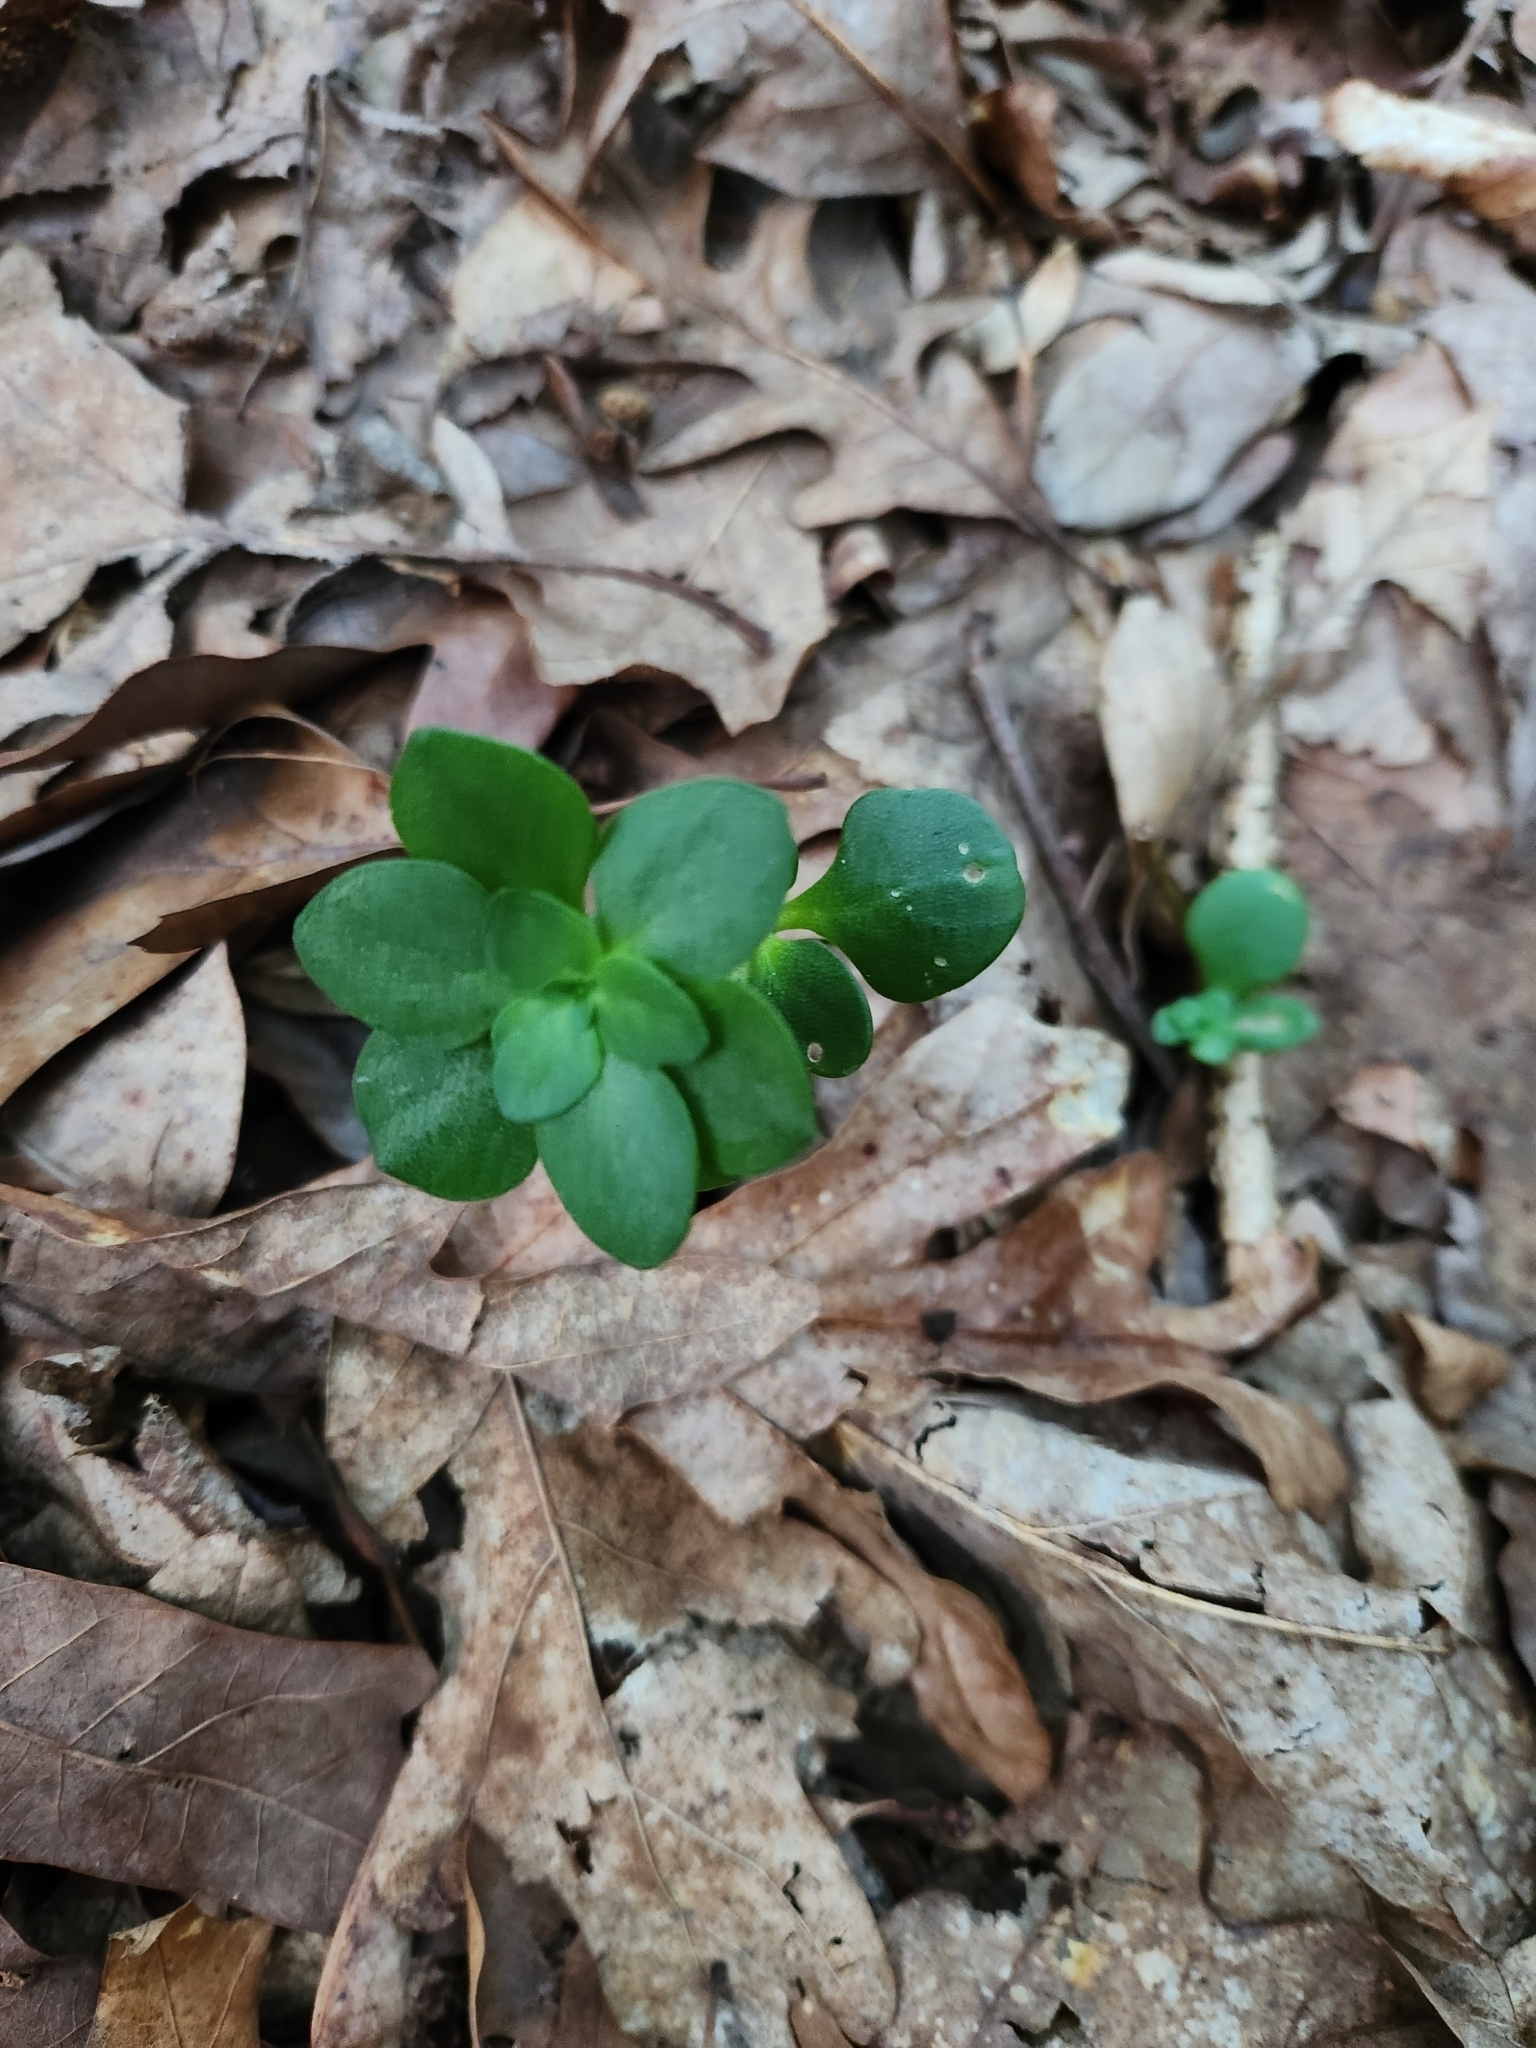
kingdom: Plantae
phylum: Tracheophyta
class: Magnoliopsida
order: Saxifragales
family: Crassulaceae
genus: Sedum
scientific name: Sedum ternatum
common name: Wild stonecrop
